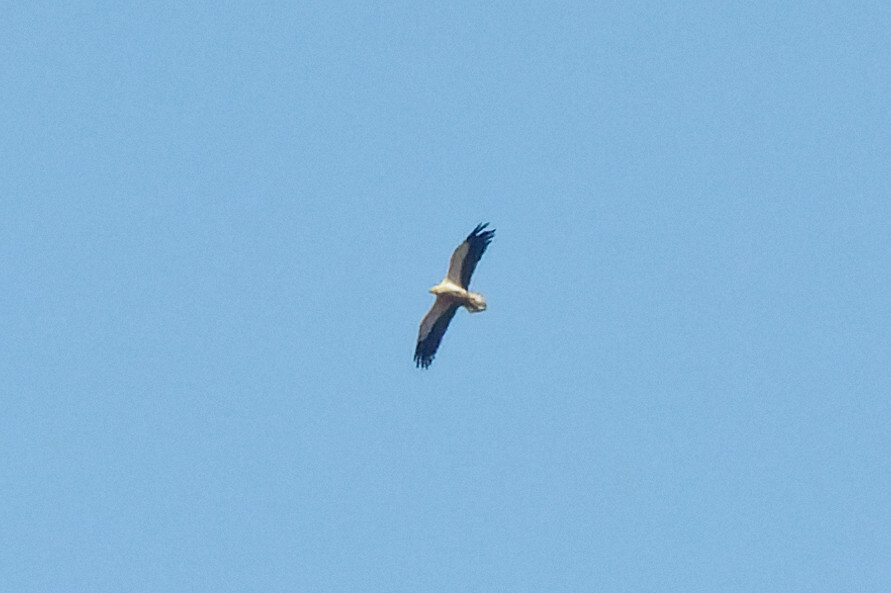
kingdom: Animalia
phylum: Chordata
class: Aves
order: Accipitriformes
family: Accipitridae
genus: Neophron
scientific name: Neophron percnopterus
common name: Egyptian vulture
